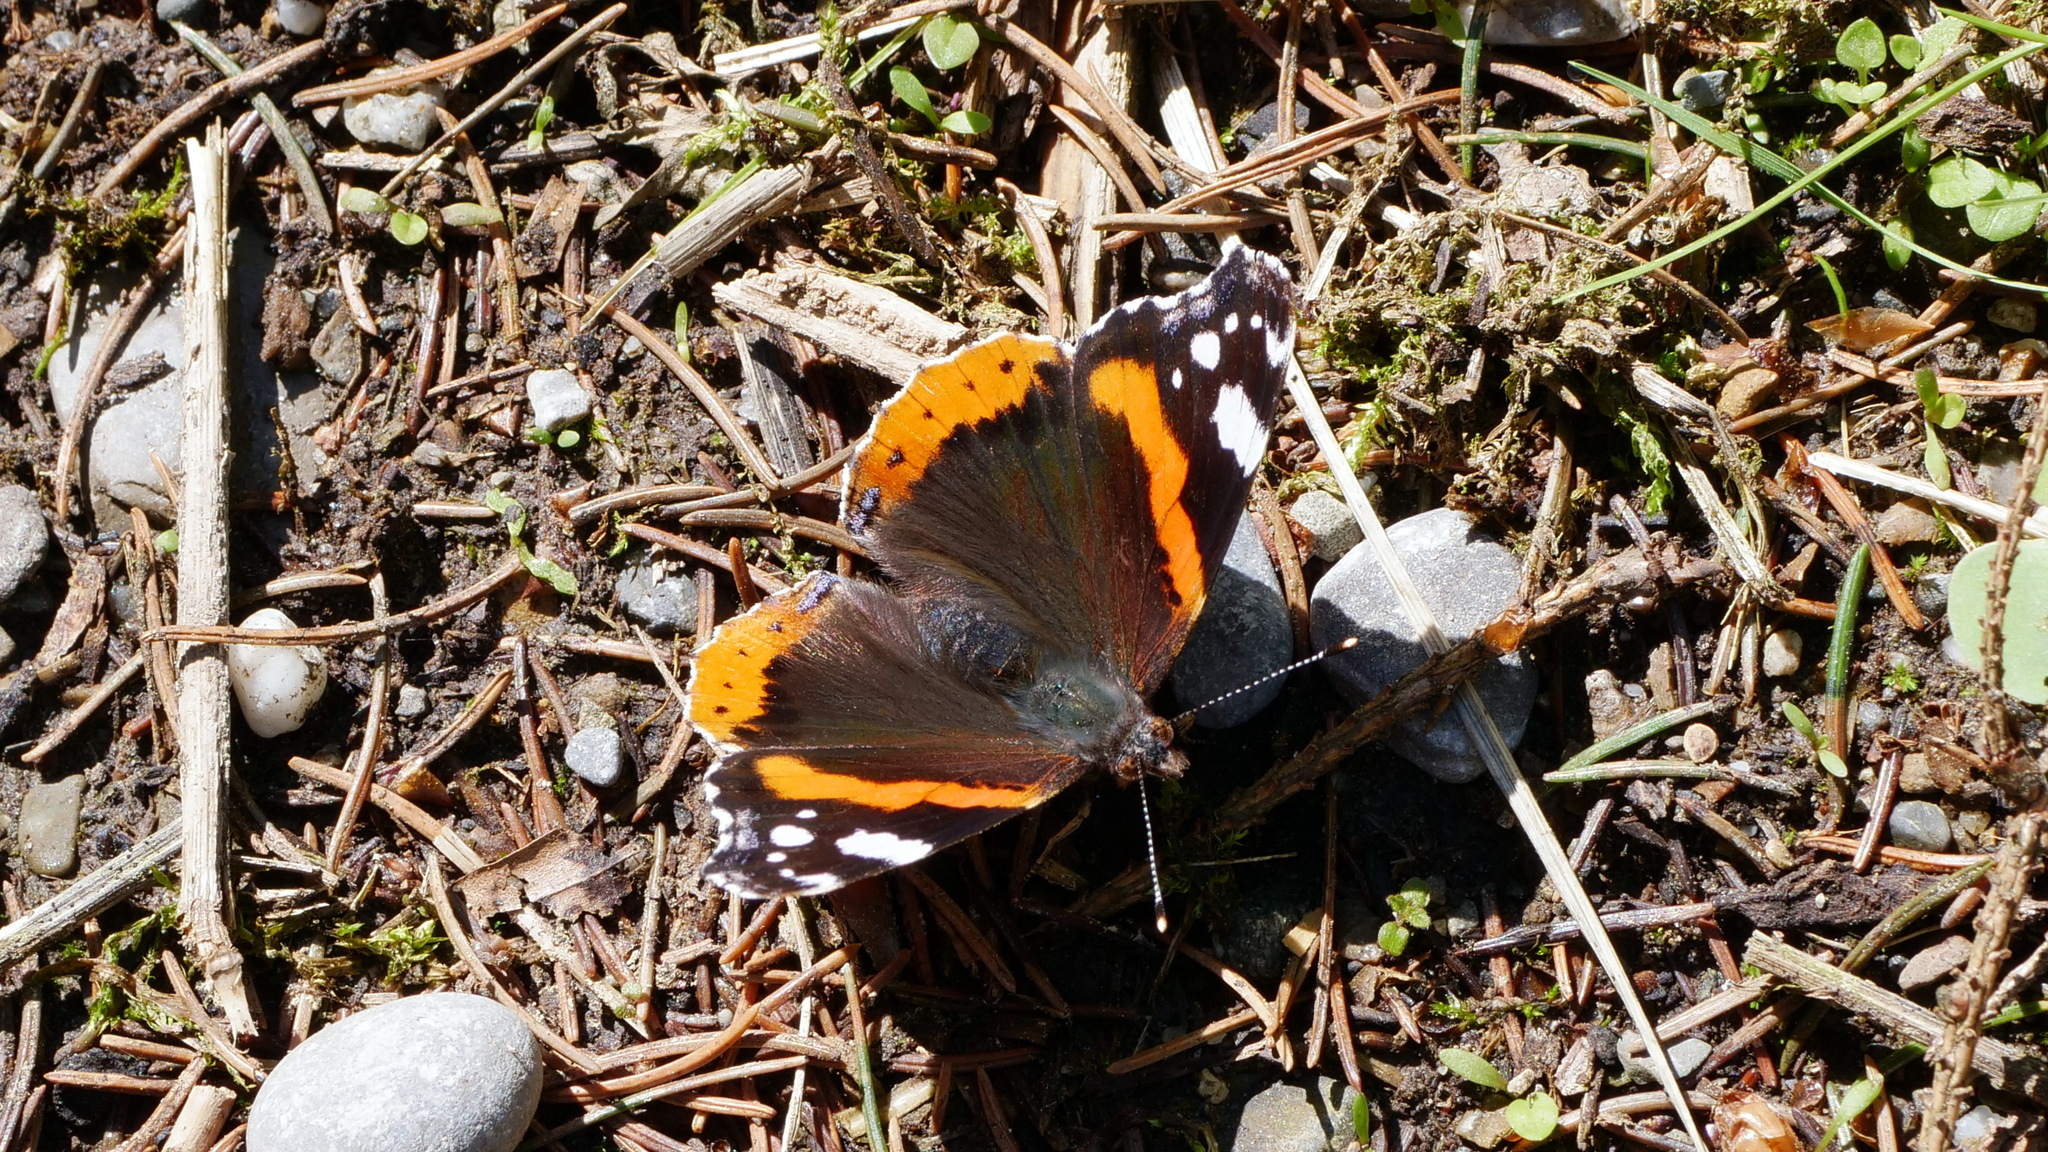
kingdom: Animalia
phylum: Arthropoda
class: Insecta
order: Lepidoptera
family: Nymphalidae
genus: Vanessa
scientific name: Vanessa atalanta
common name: Red admiral
